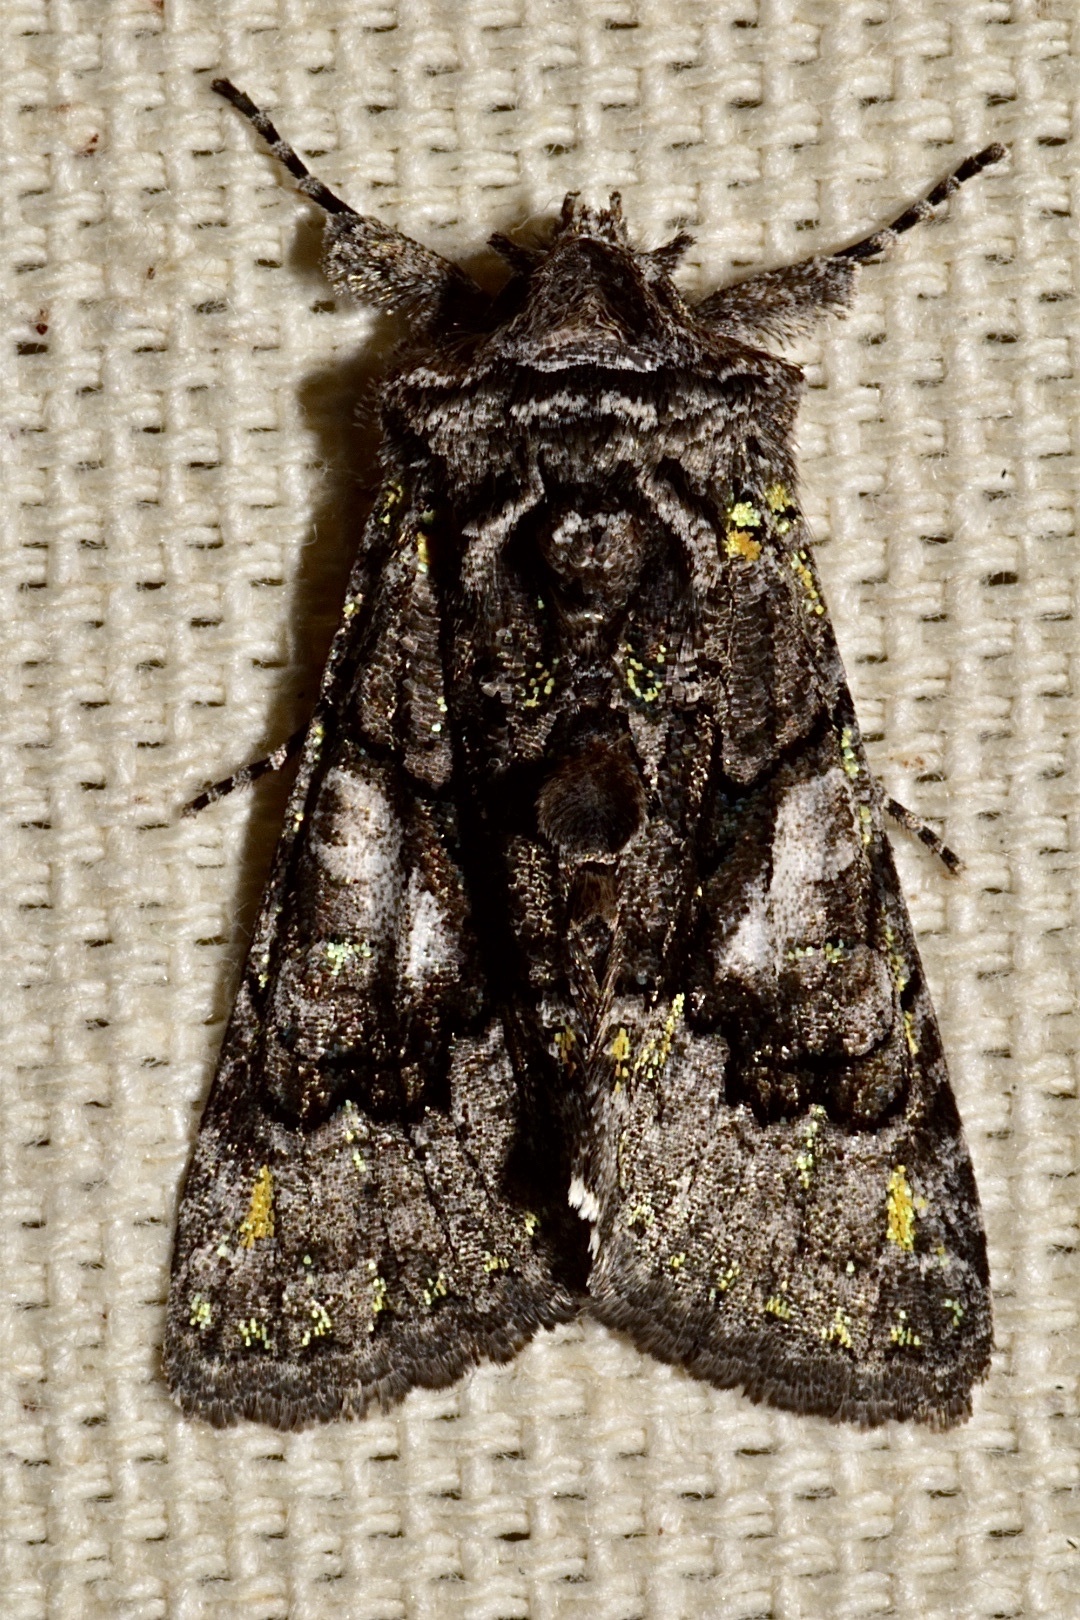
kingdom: Animalia
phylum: Arthropoda
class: Insecta
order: Lepidoptera
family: Noctuidae
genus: Behrensia
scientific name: Behrensia conchiformis
